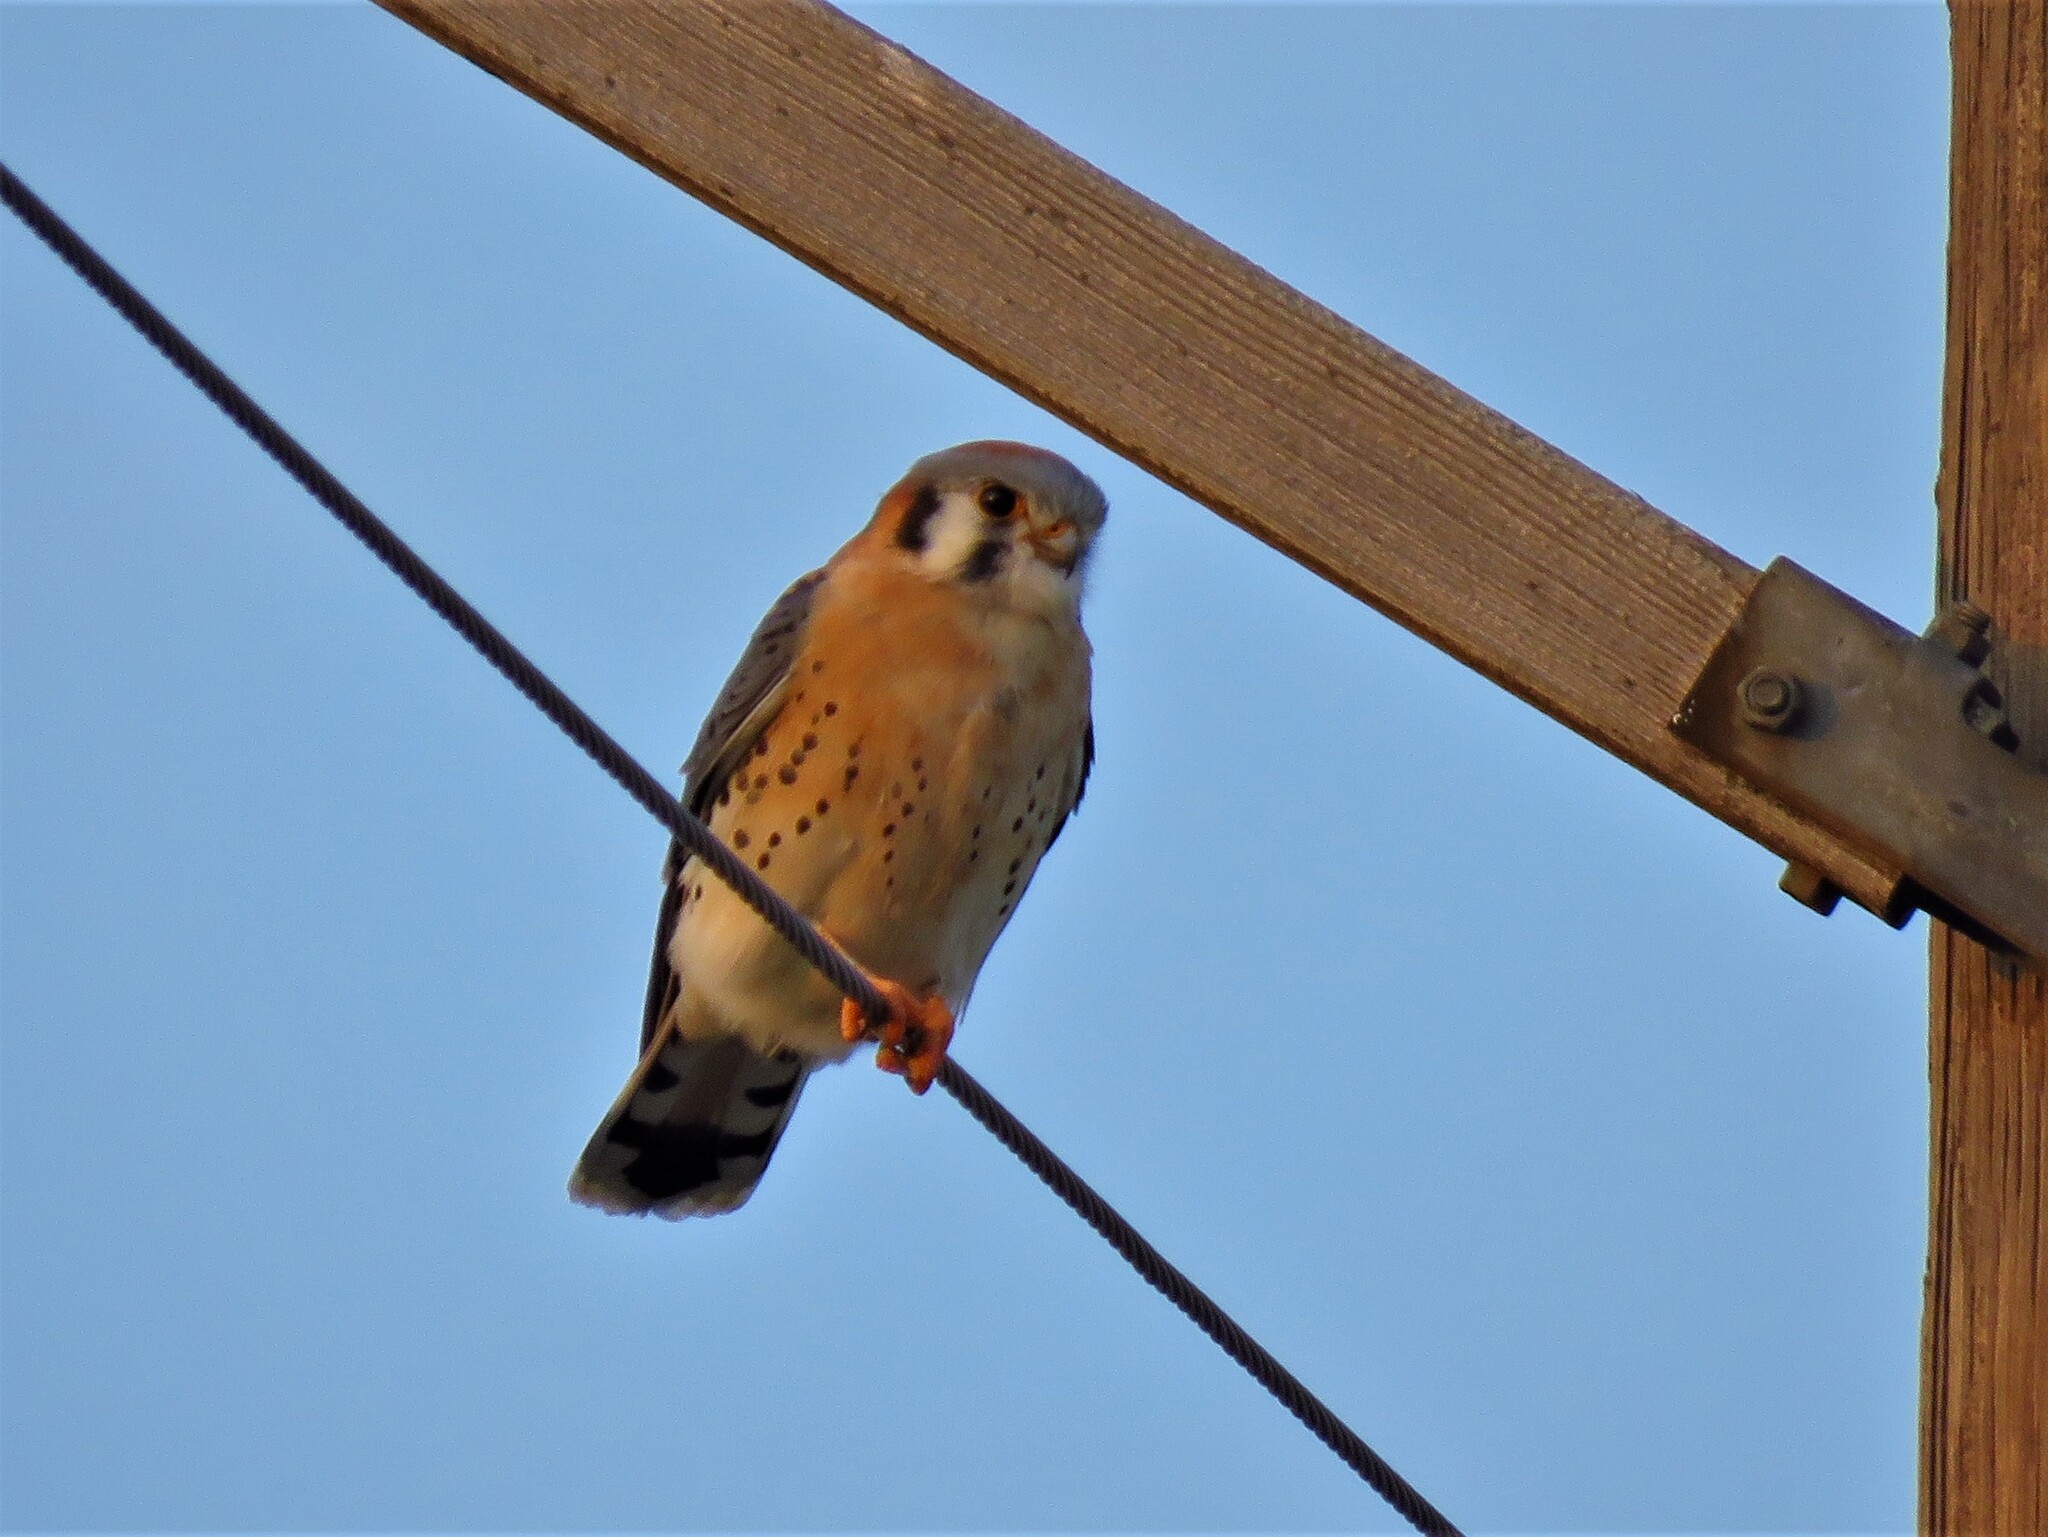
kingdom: Animalia
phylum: Chordata
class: Aves
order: Falconiformes
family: Falconidae
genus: Falco
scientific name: Falco sparverius
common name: American kestrel
